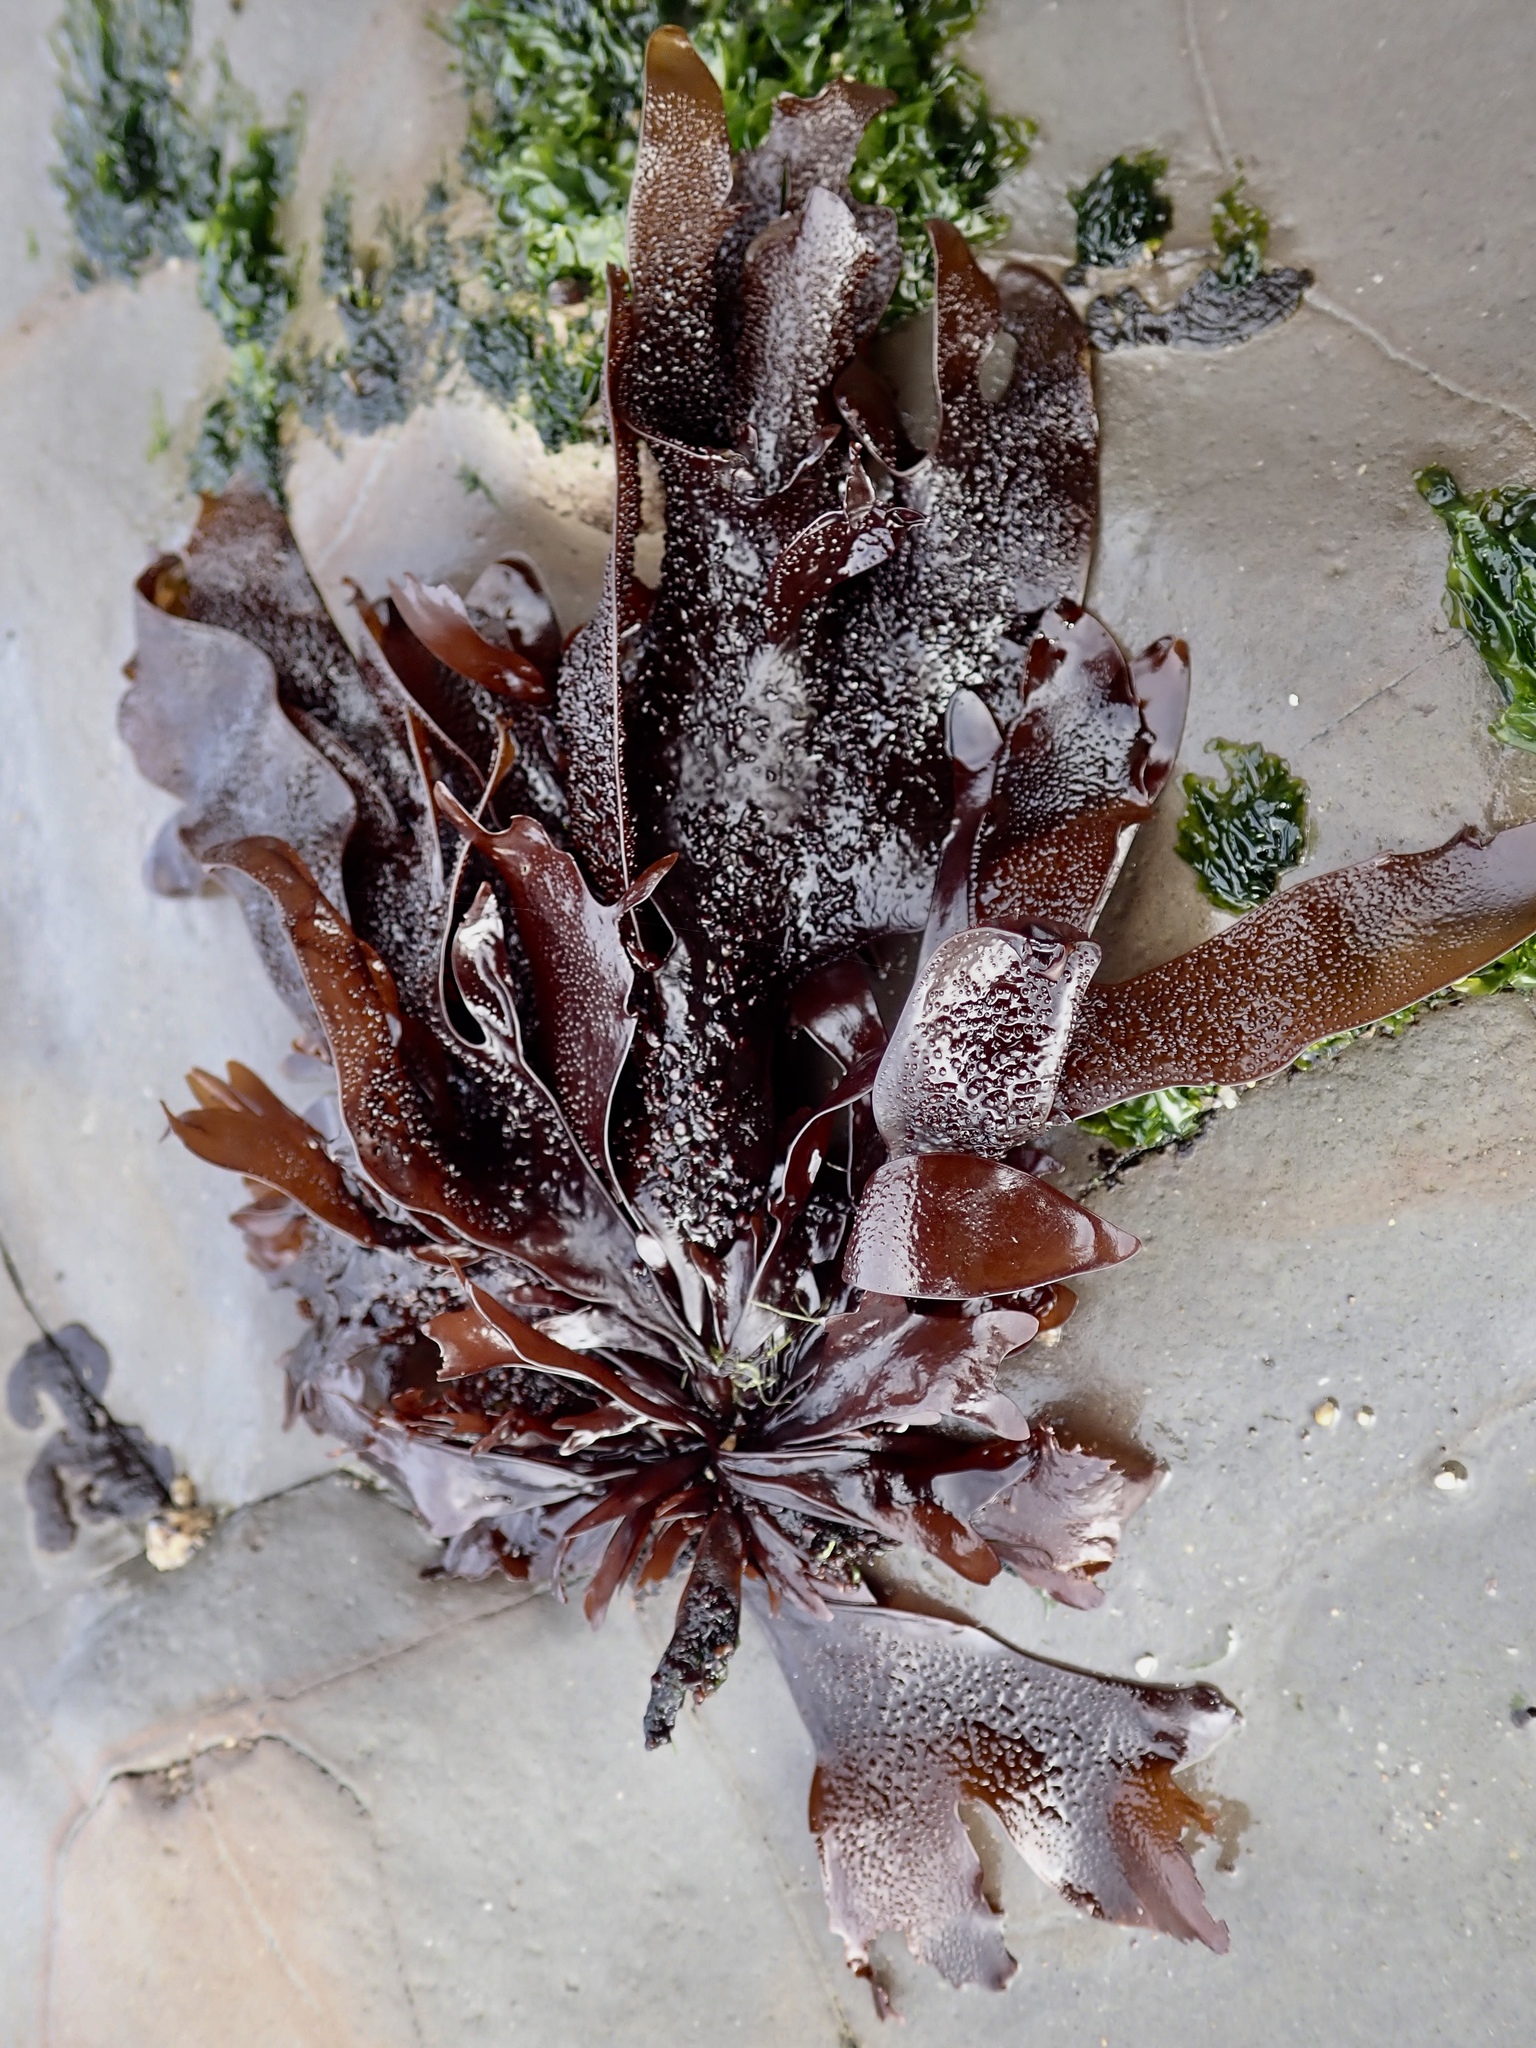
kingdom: Plantae
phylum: Rhodophyta
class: Florideophyceae
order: Gigartinales
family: Phyllophoraceae
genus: Mastocarpus
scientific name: Mastocarpus papillatus
